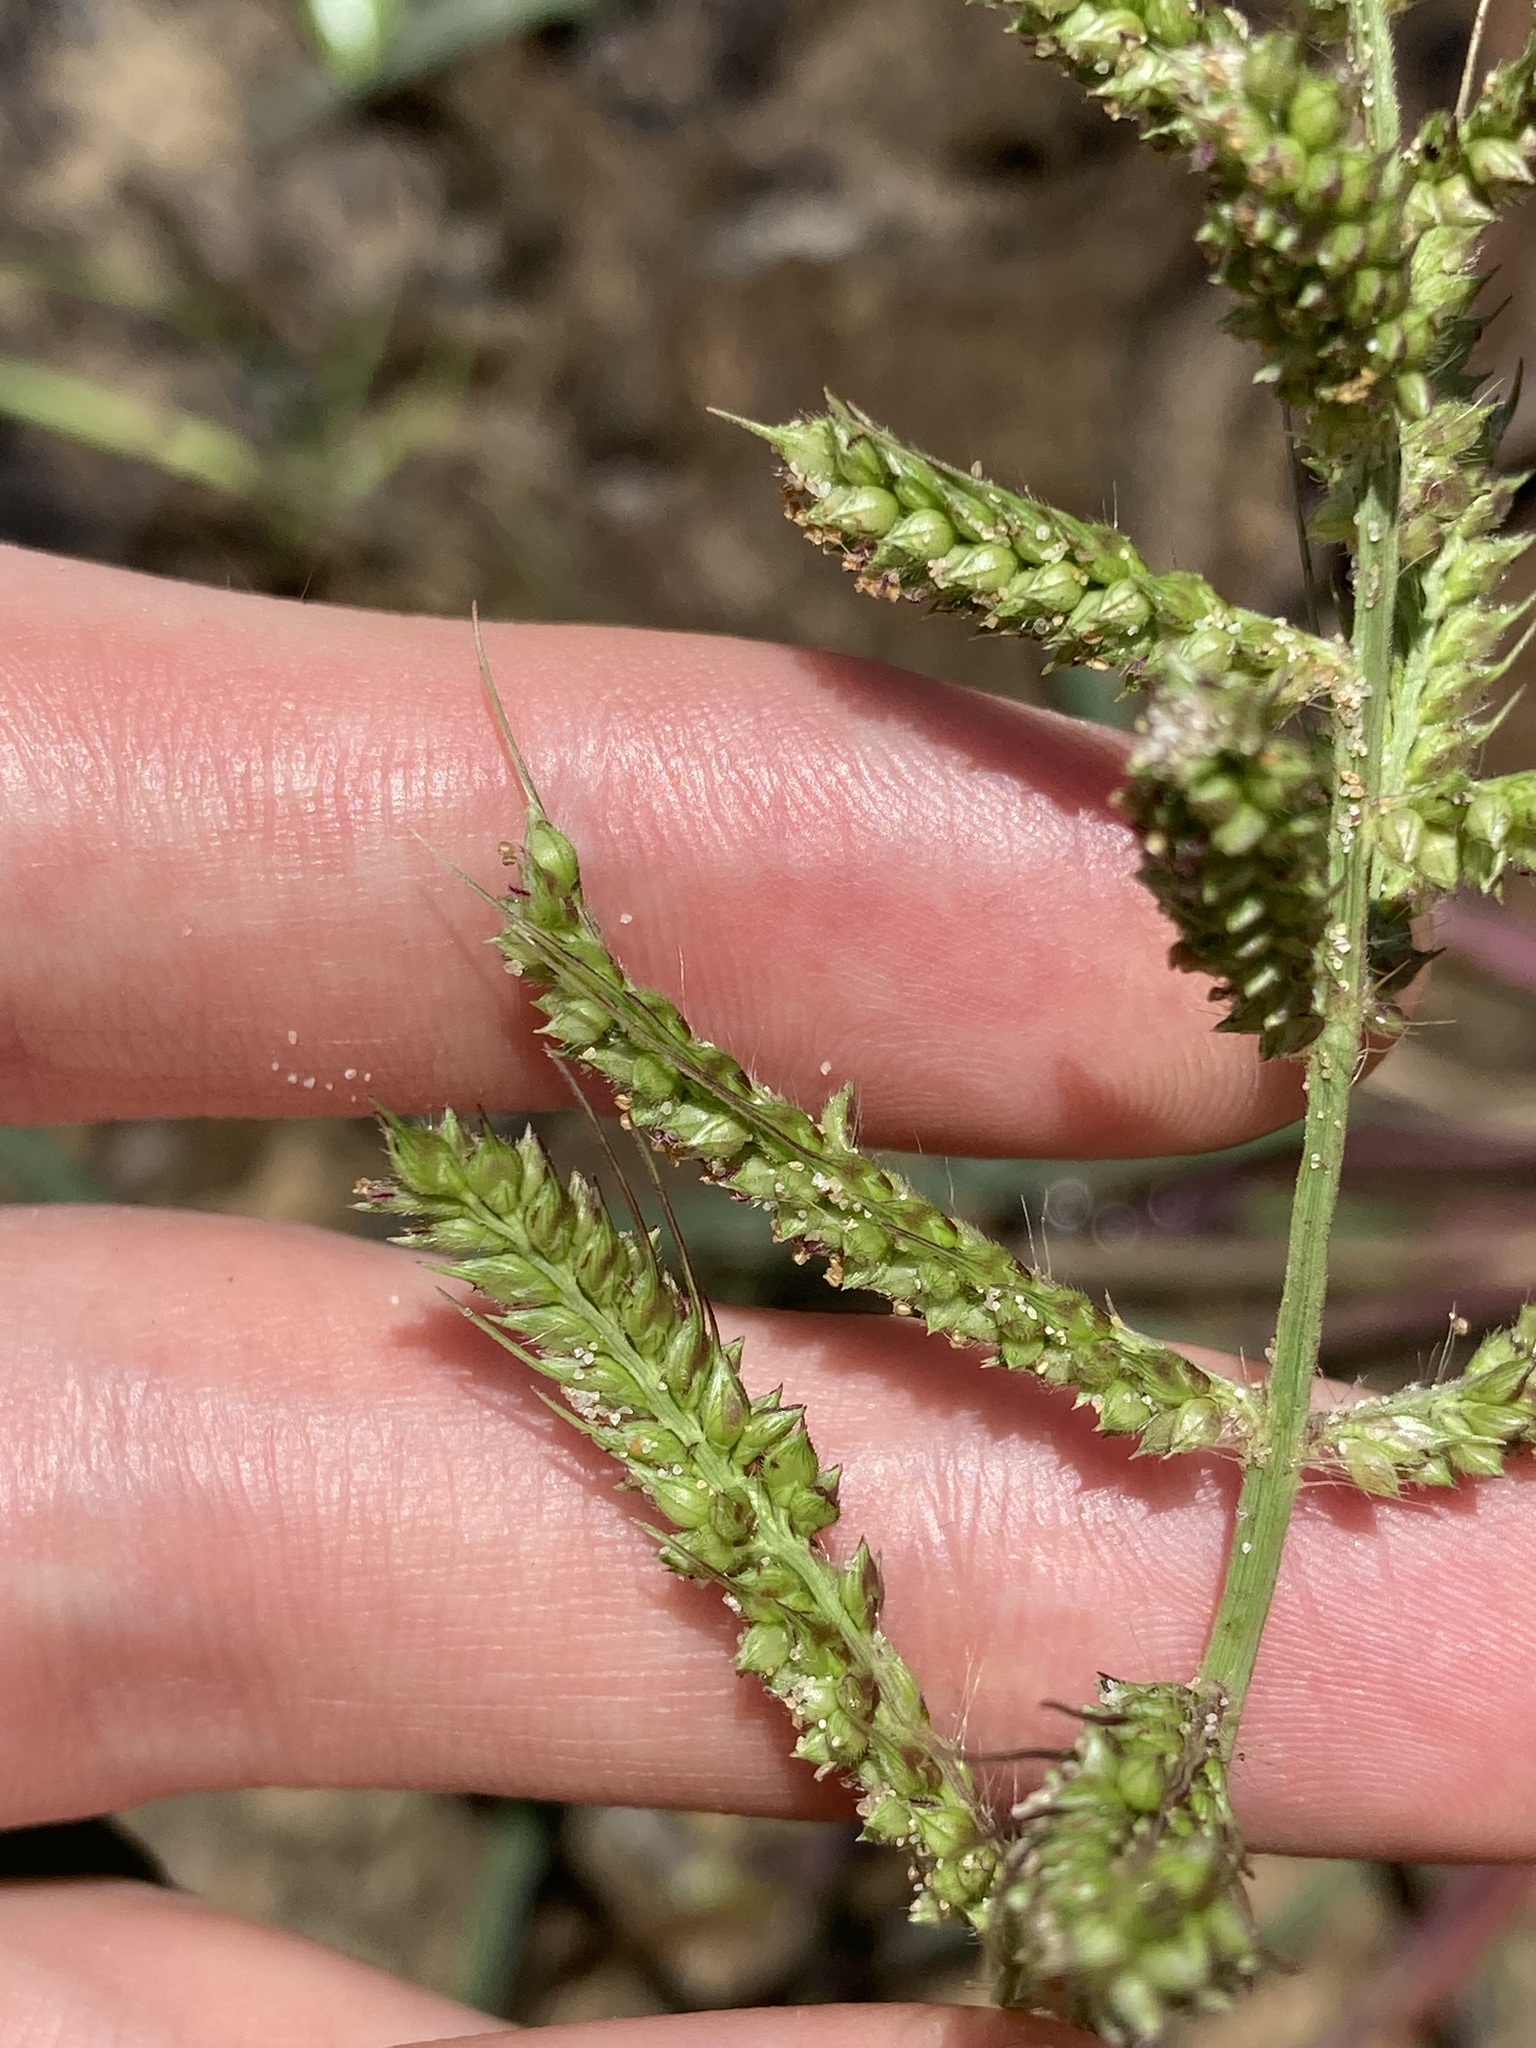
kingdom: Plantae
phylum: Tracheophyta
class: Liliopsida
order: Poales
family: Poaceae
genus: Echinochloa
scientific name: Echinochloa crus-galli
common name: Cockspur
